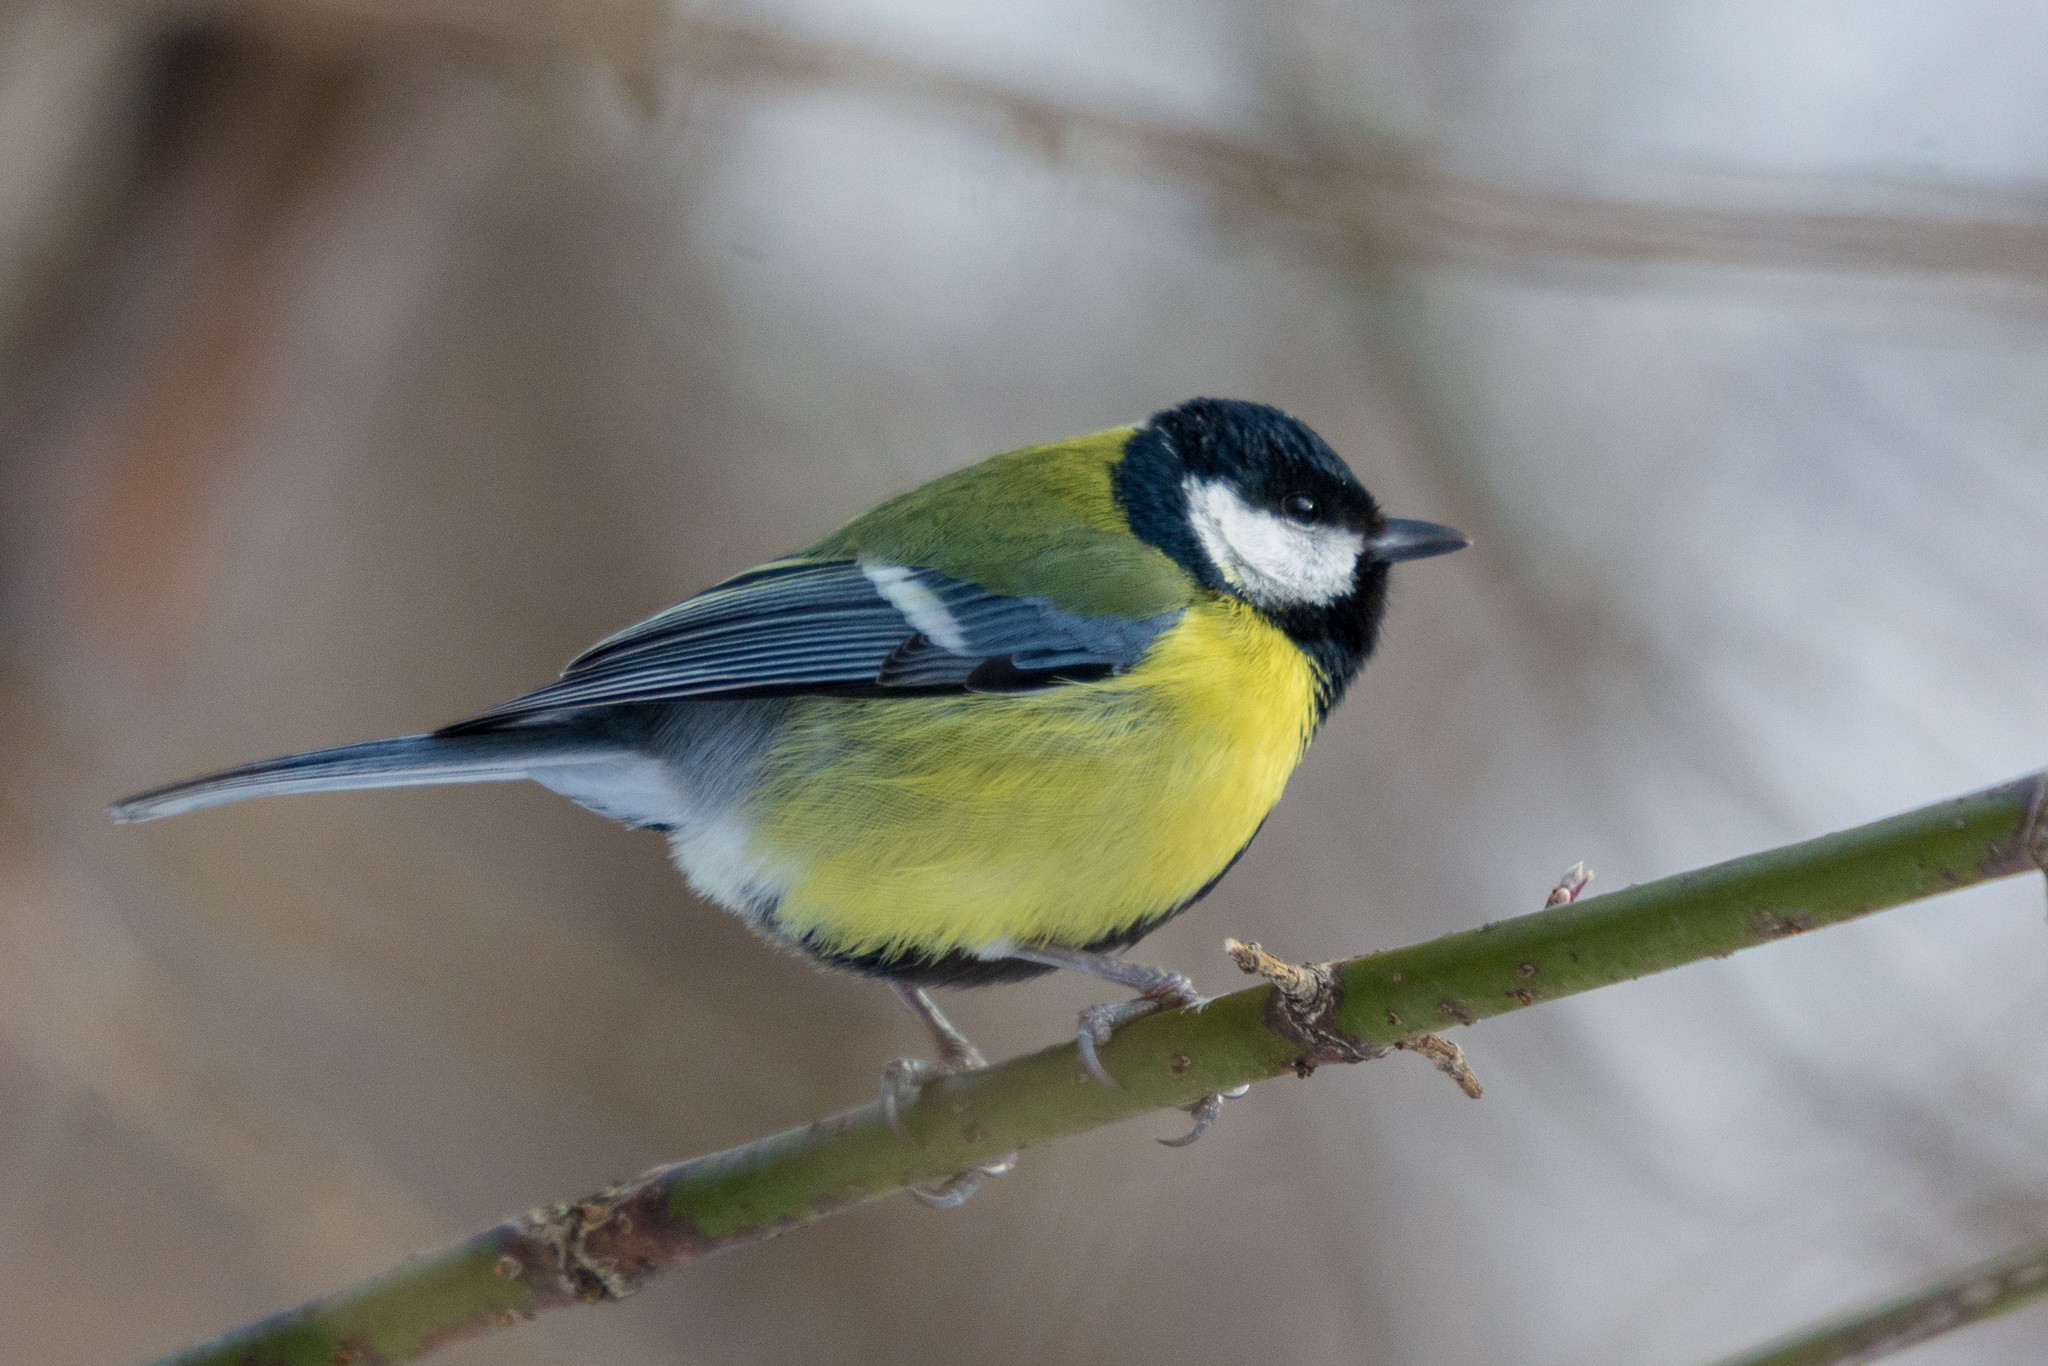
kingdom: Animalia
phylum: Chordata
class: Aves
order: Passeriformes
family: Paridae
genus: Parus
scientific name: Parus major
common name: Great tit
